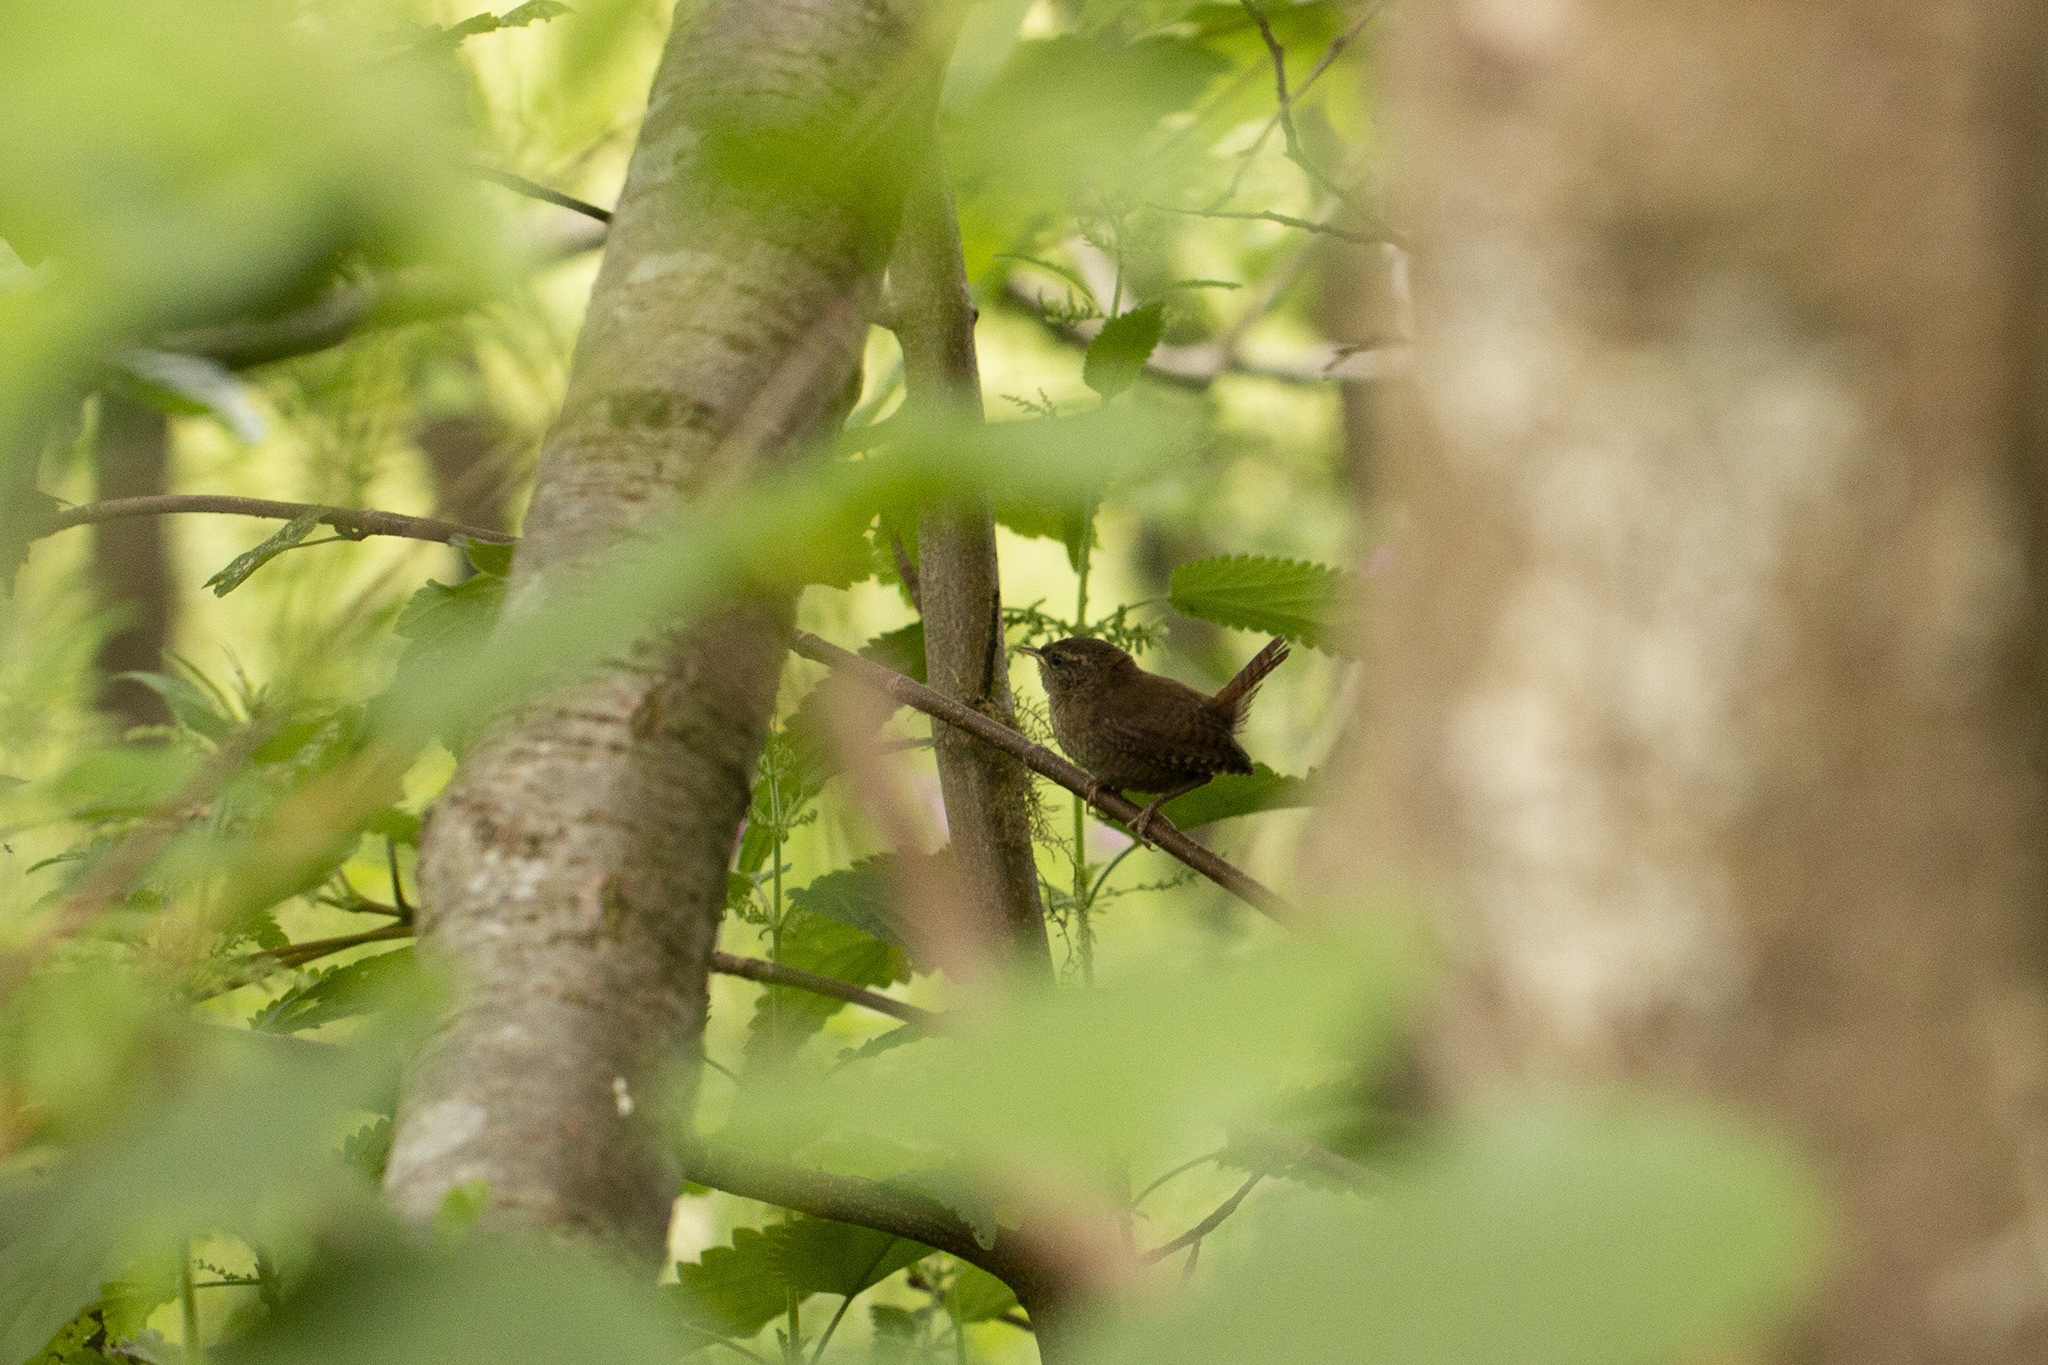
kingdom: Animalia
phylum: Chordata
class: Aves
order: Passeriformes
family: Troglodytidae
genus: Troglodytes
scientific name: Troglodytes troglodytes
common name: Eurasian wren
